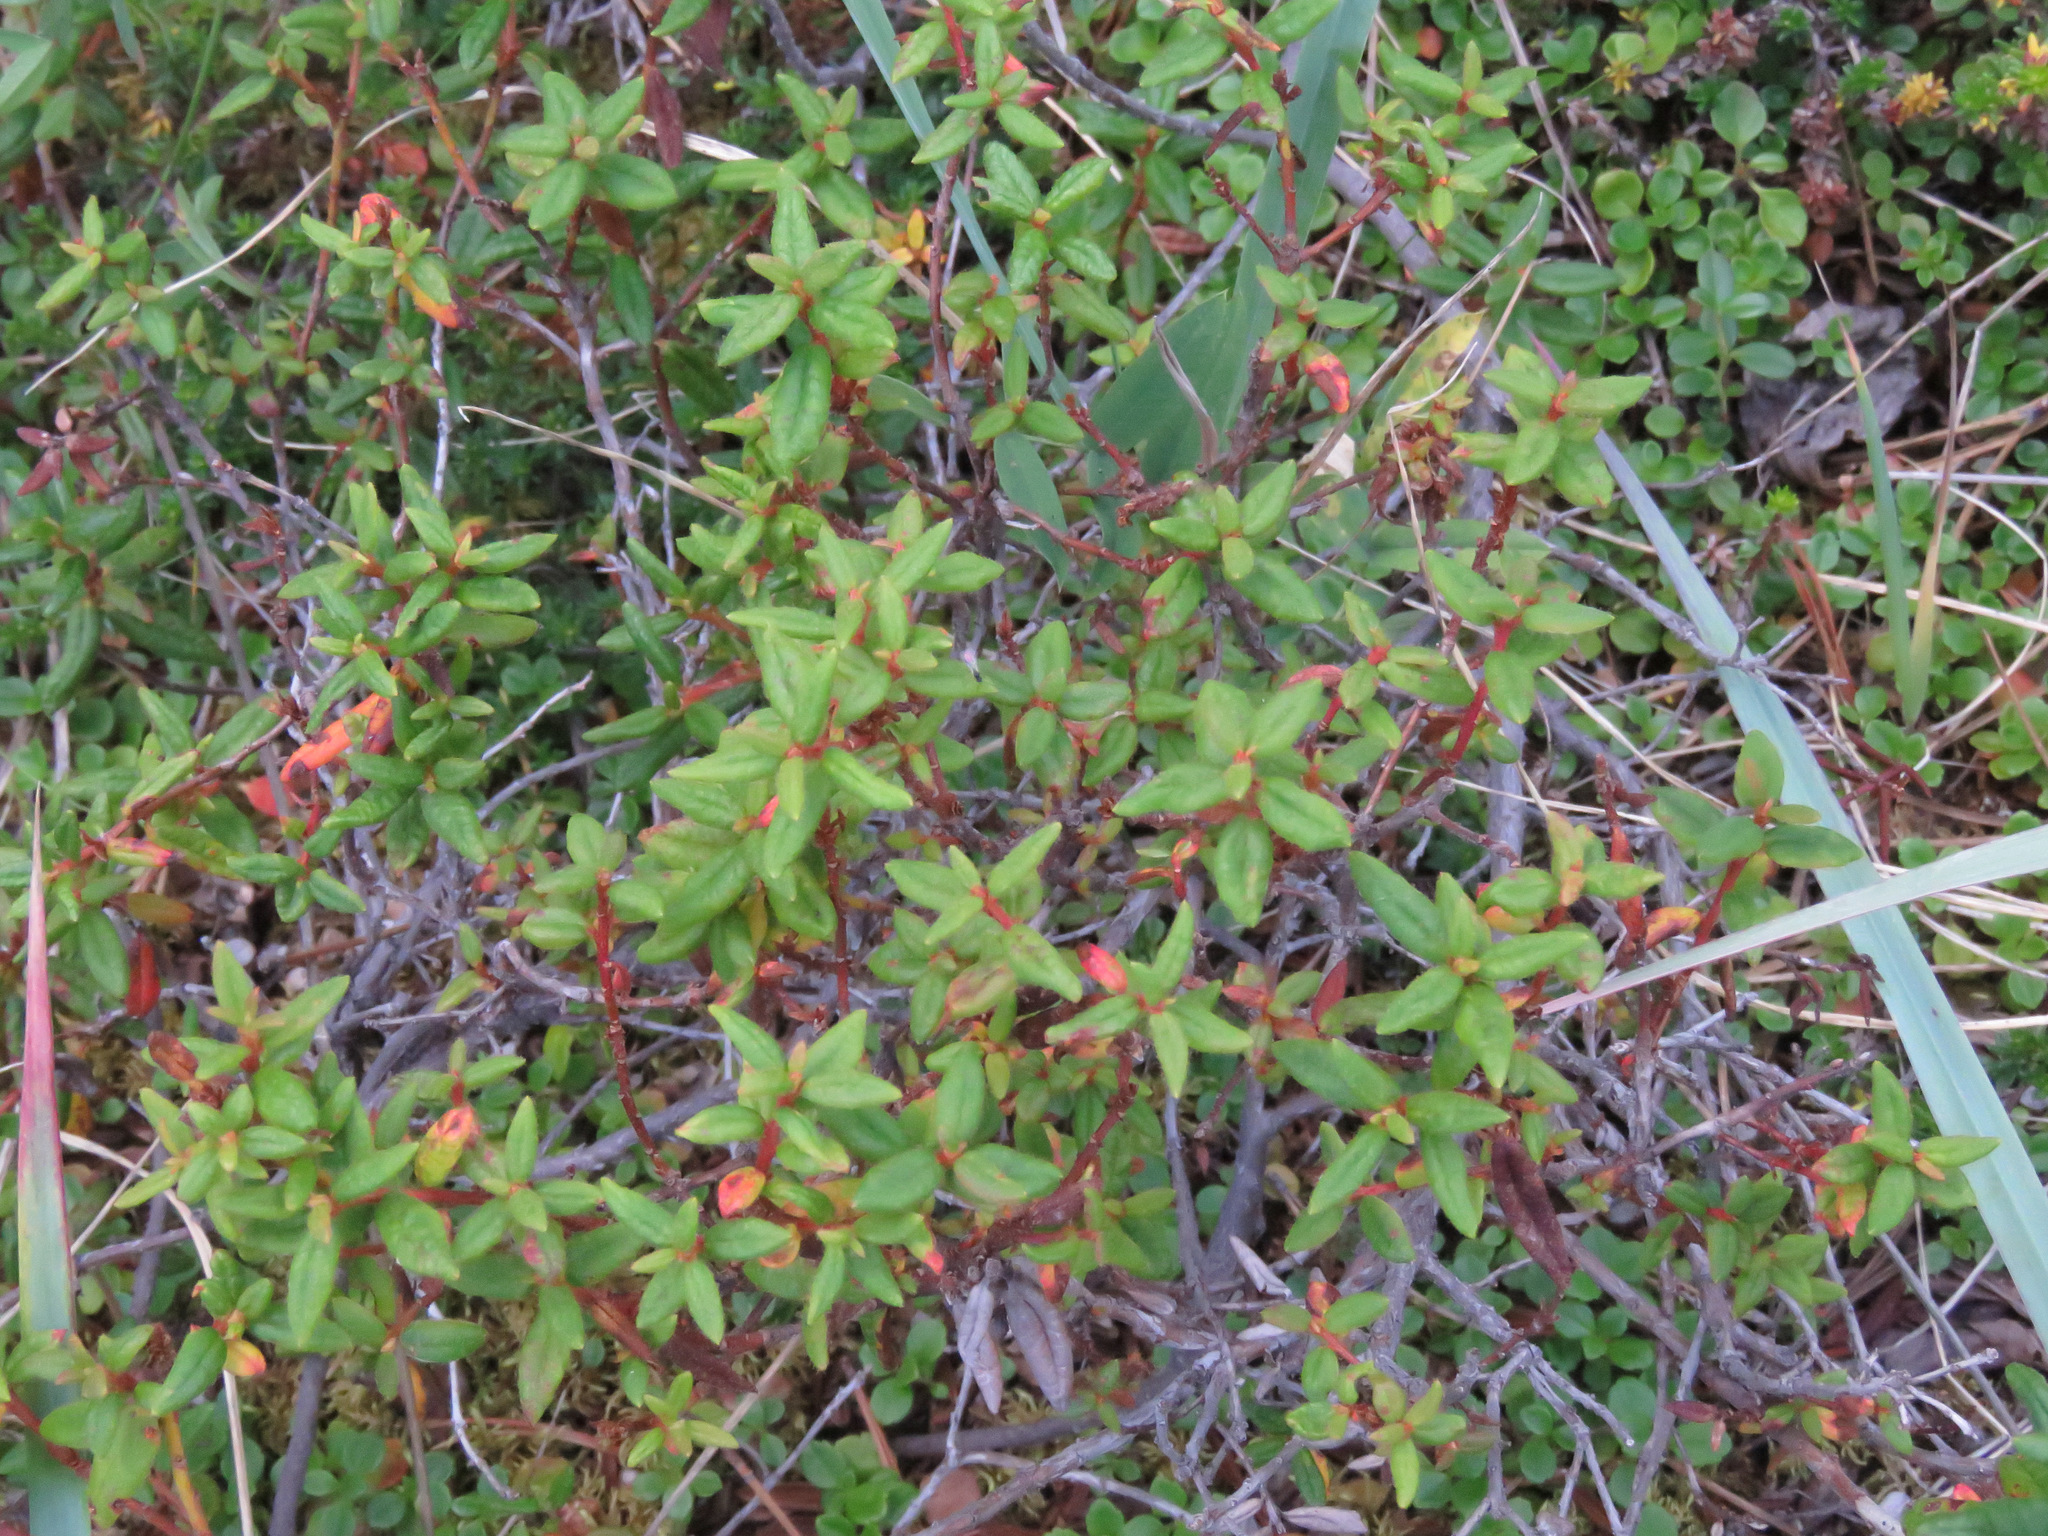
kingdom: Plantae
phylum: Tracheophyta
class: Magnoliopsida
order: Ericales
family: Ericaceae
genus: Rhododendron
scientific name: Rhododendron groenlandicum
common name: Bog labrador tea
